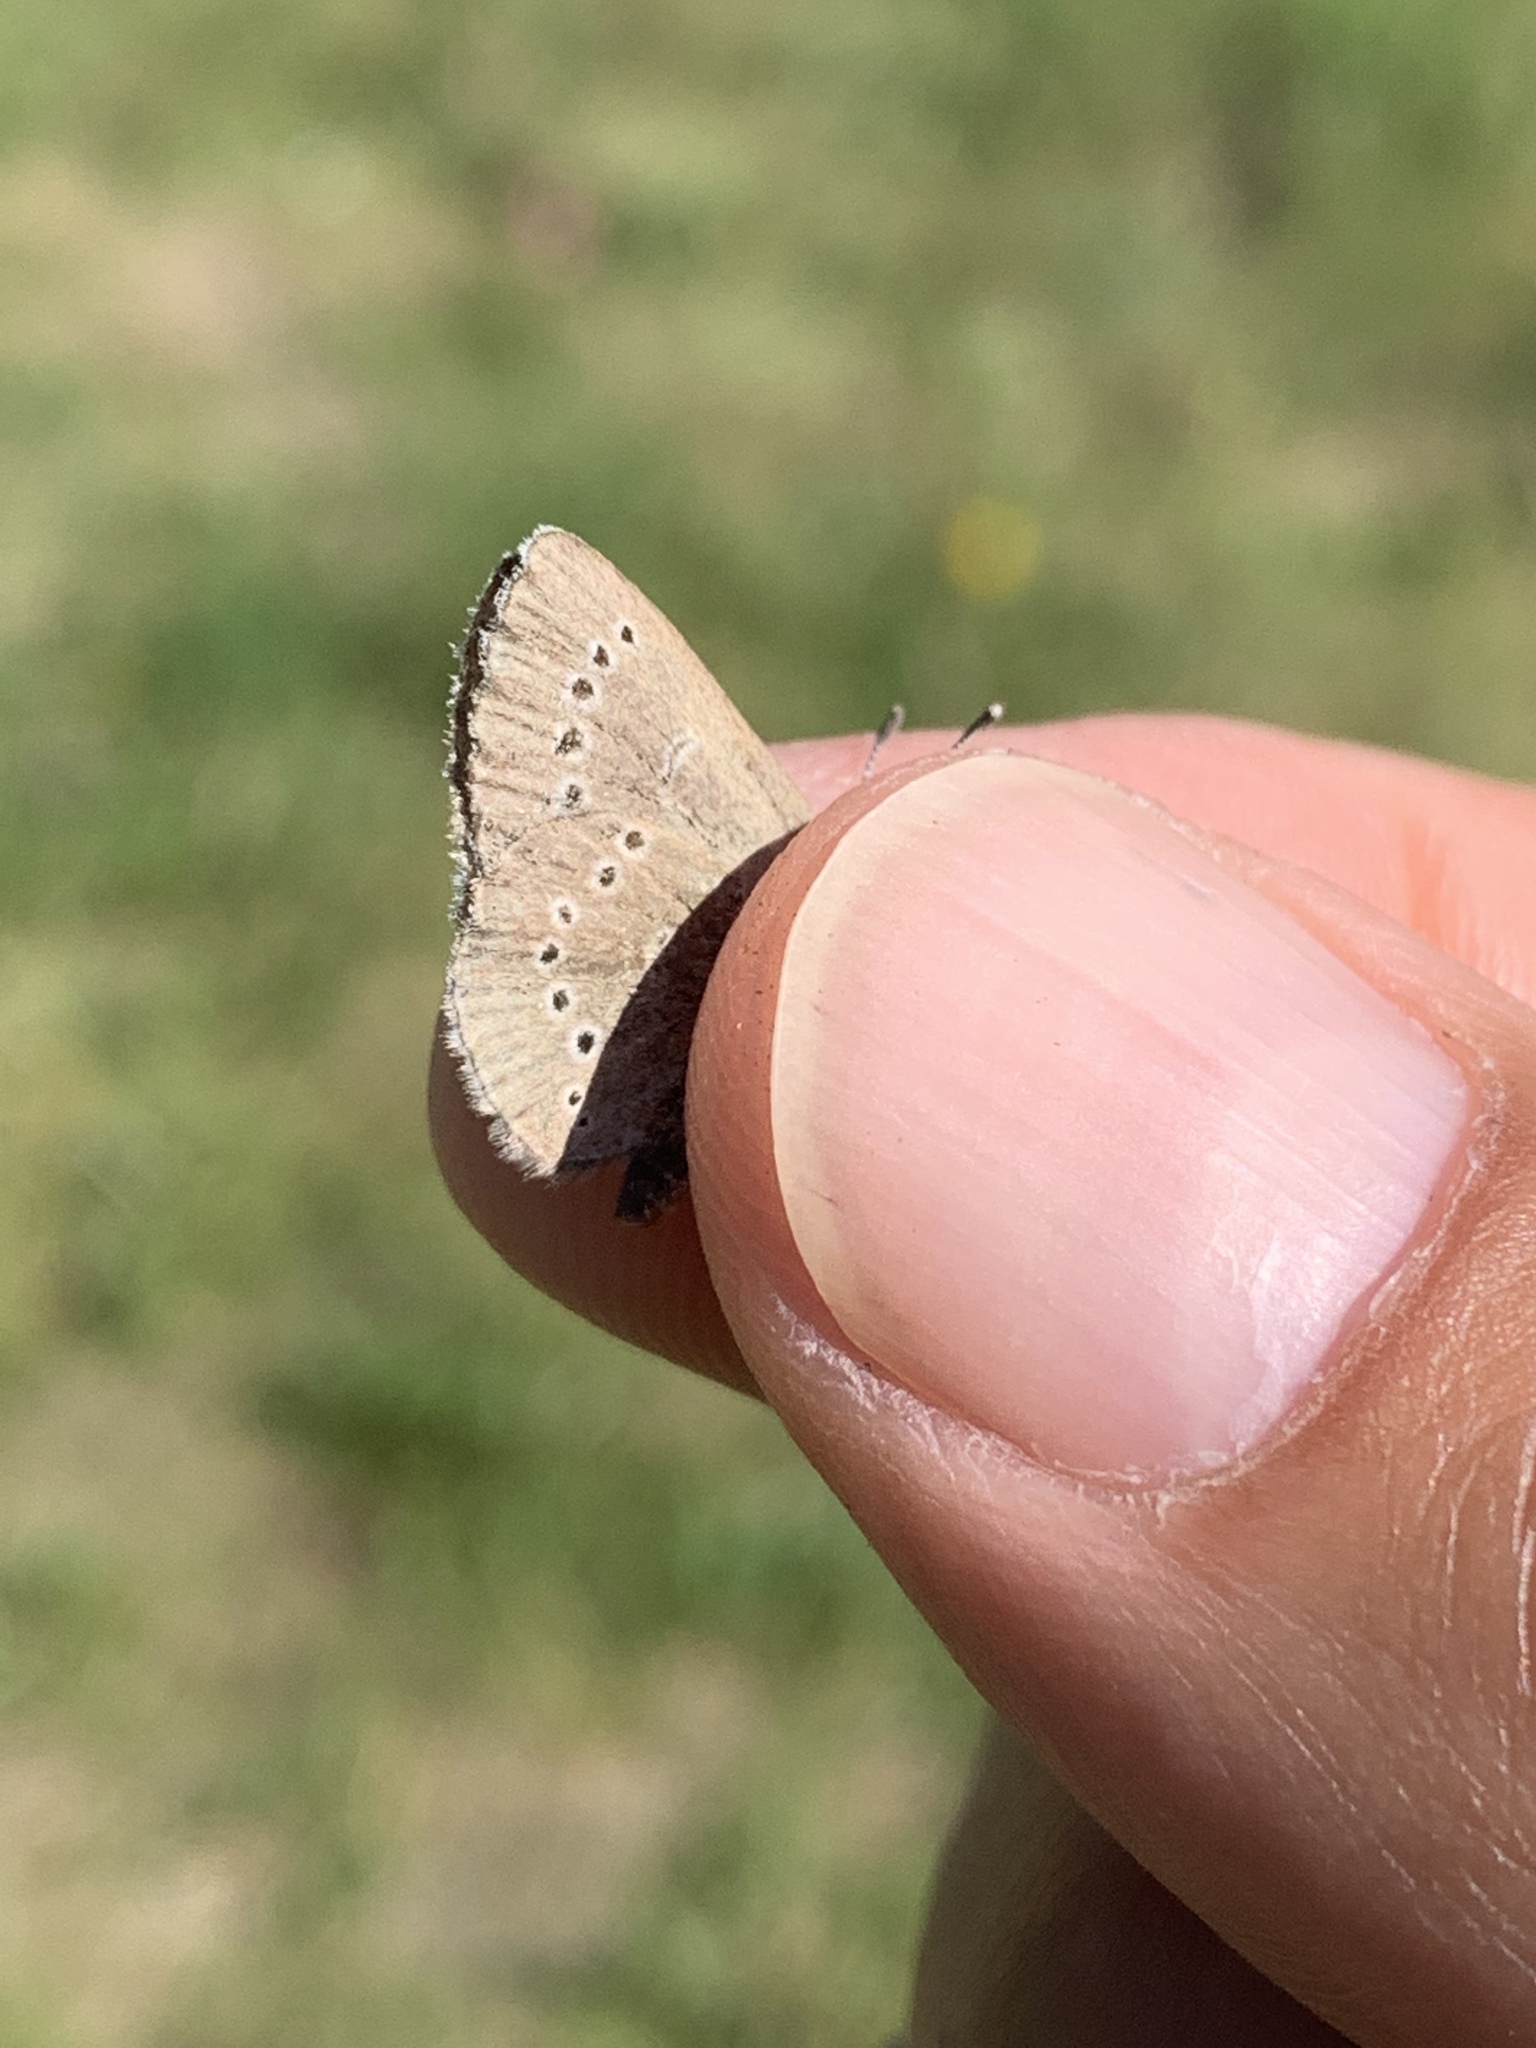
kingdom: Animalia
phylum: Arthropoda
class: Insecta
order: Lepidoptera
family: Lycaenidae
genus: Glaucopsyche
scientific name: Glaucopsyche lygdamus
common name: Silvery blue
